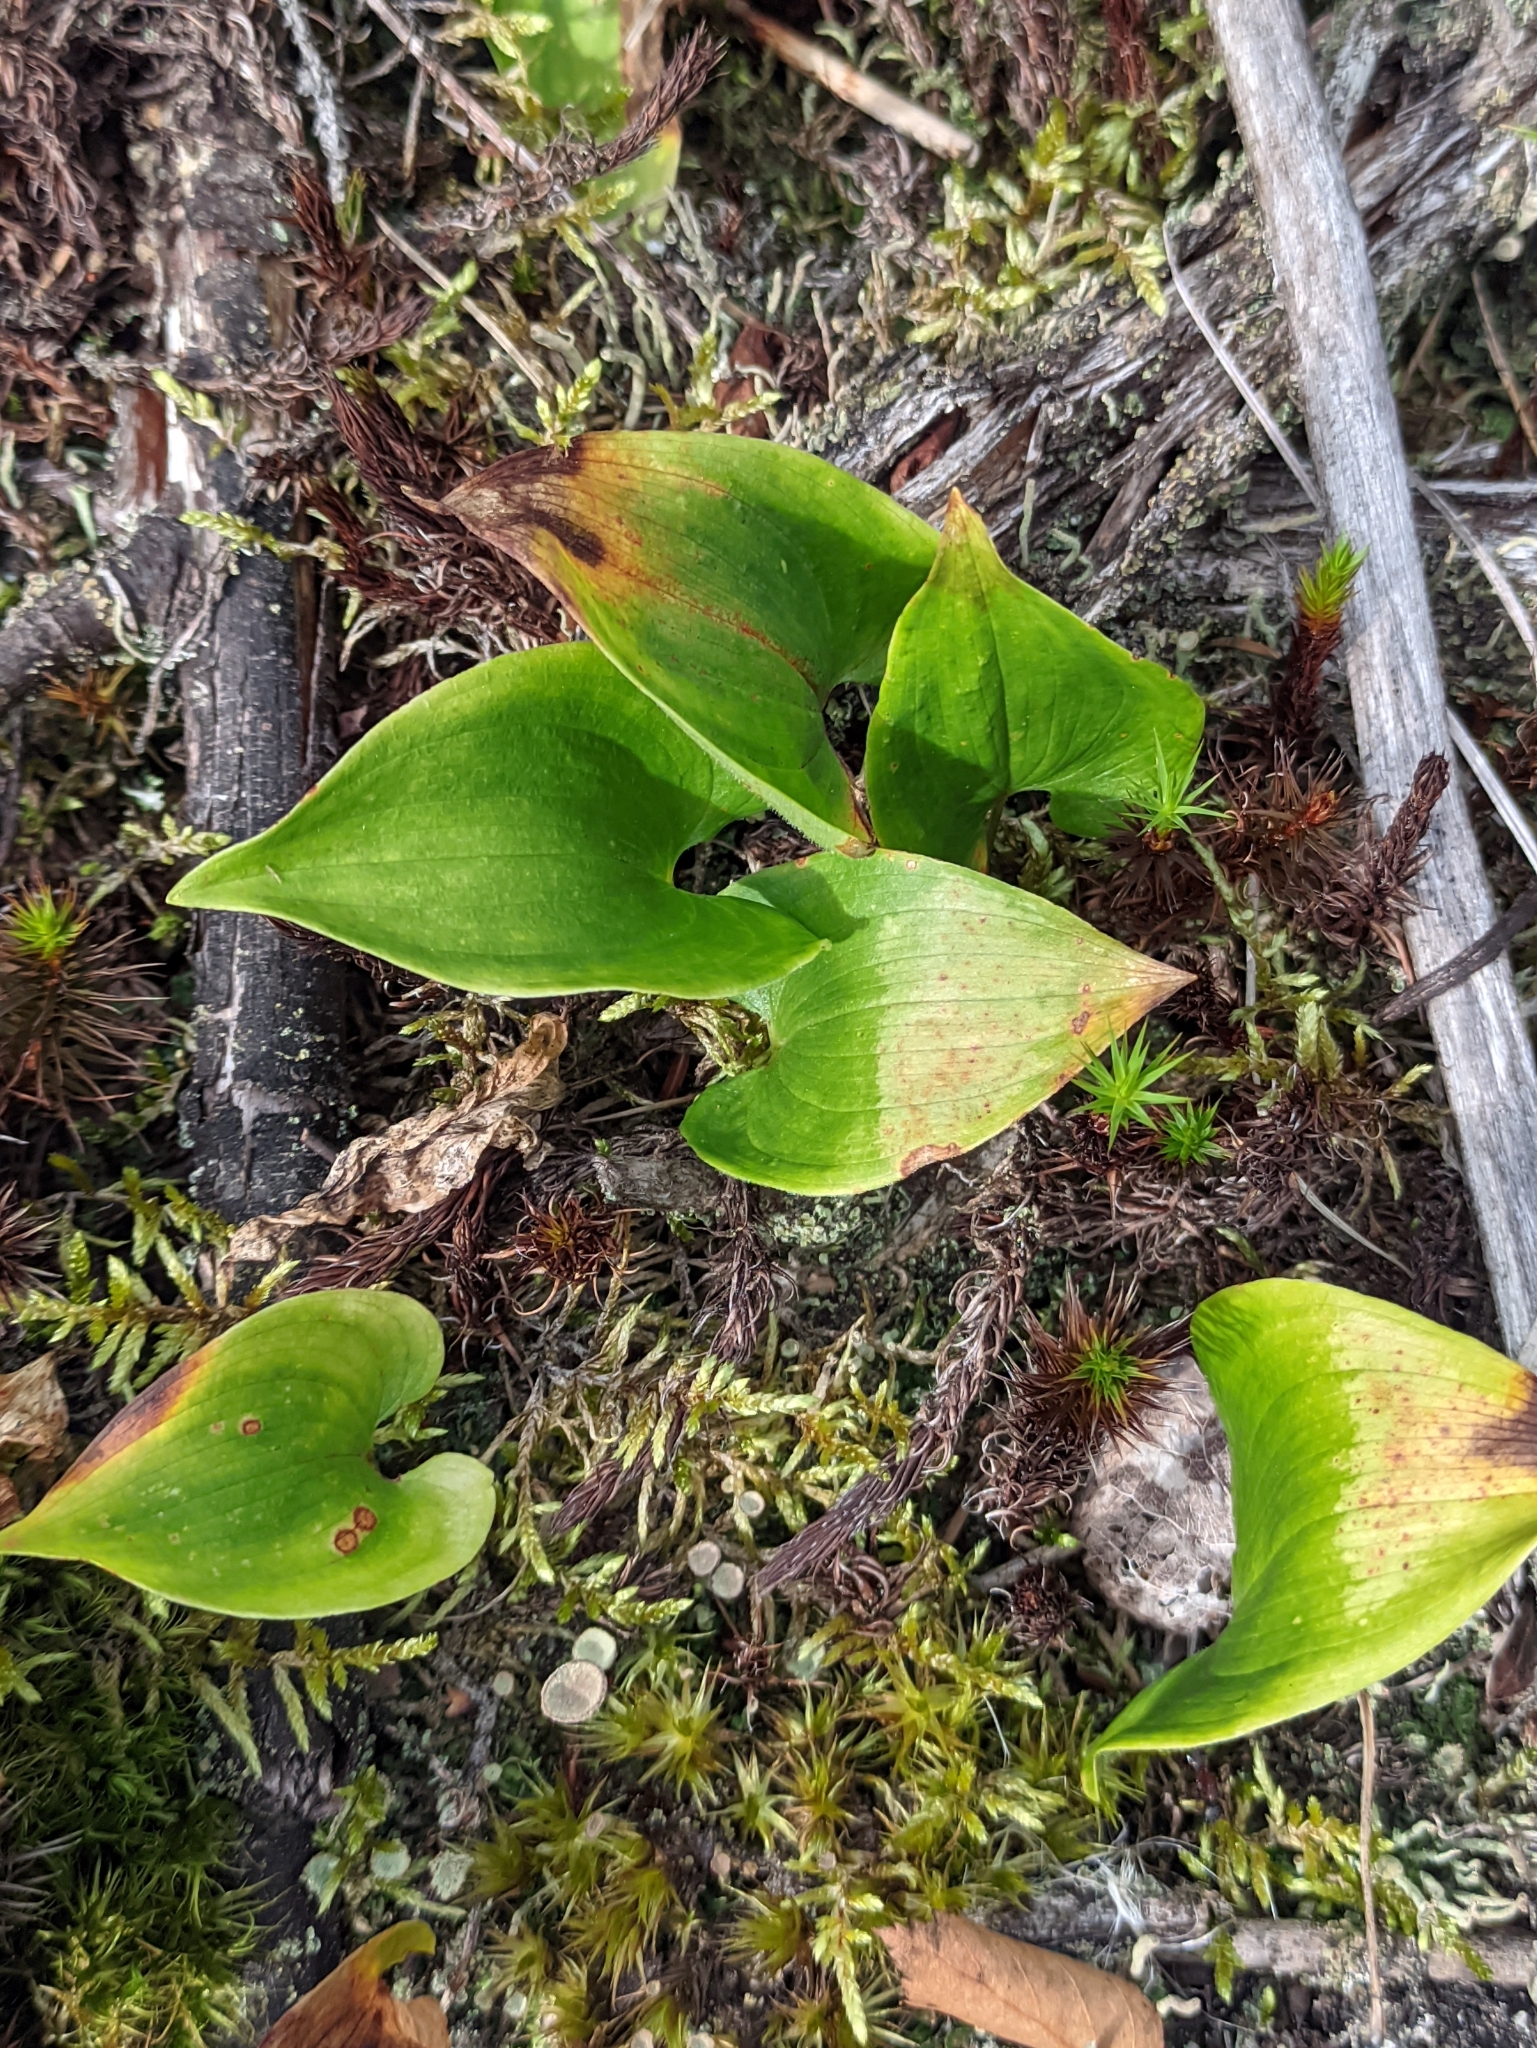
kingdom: Plantae
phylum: Tracheophyta
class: Liliopsida
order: Asparagales
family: Asparagaceae
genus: Maianthemum
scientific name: Maianthemum bifolium
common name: May lily
